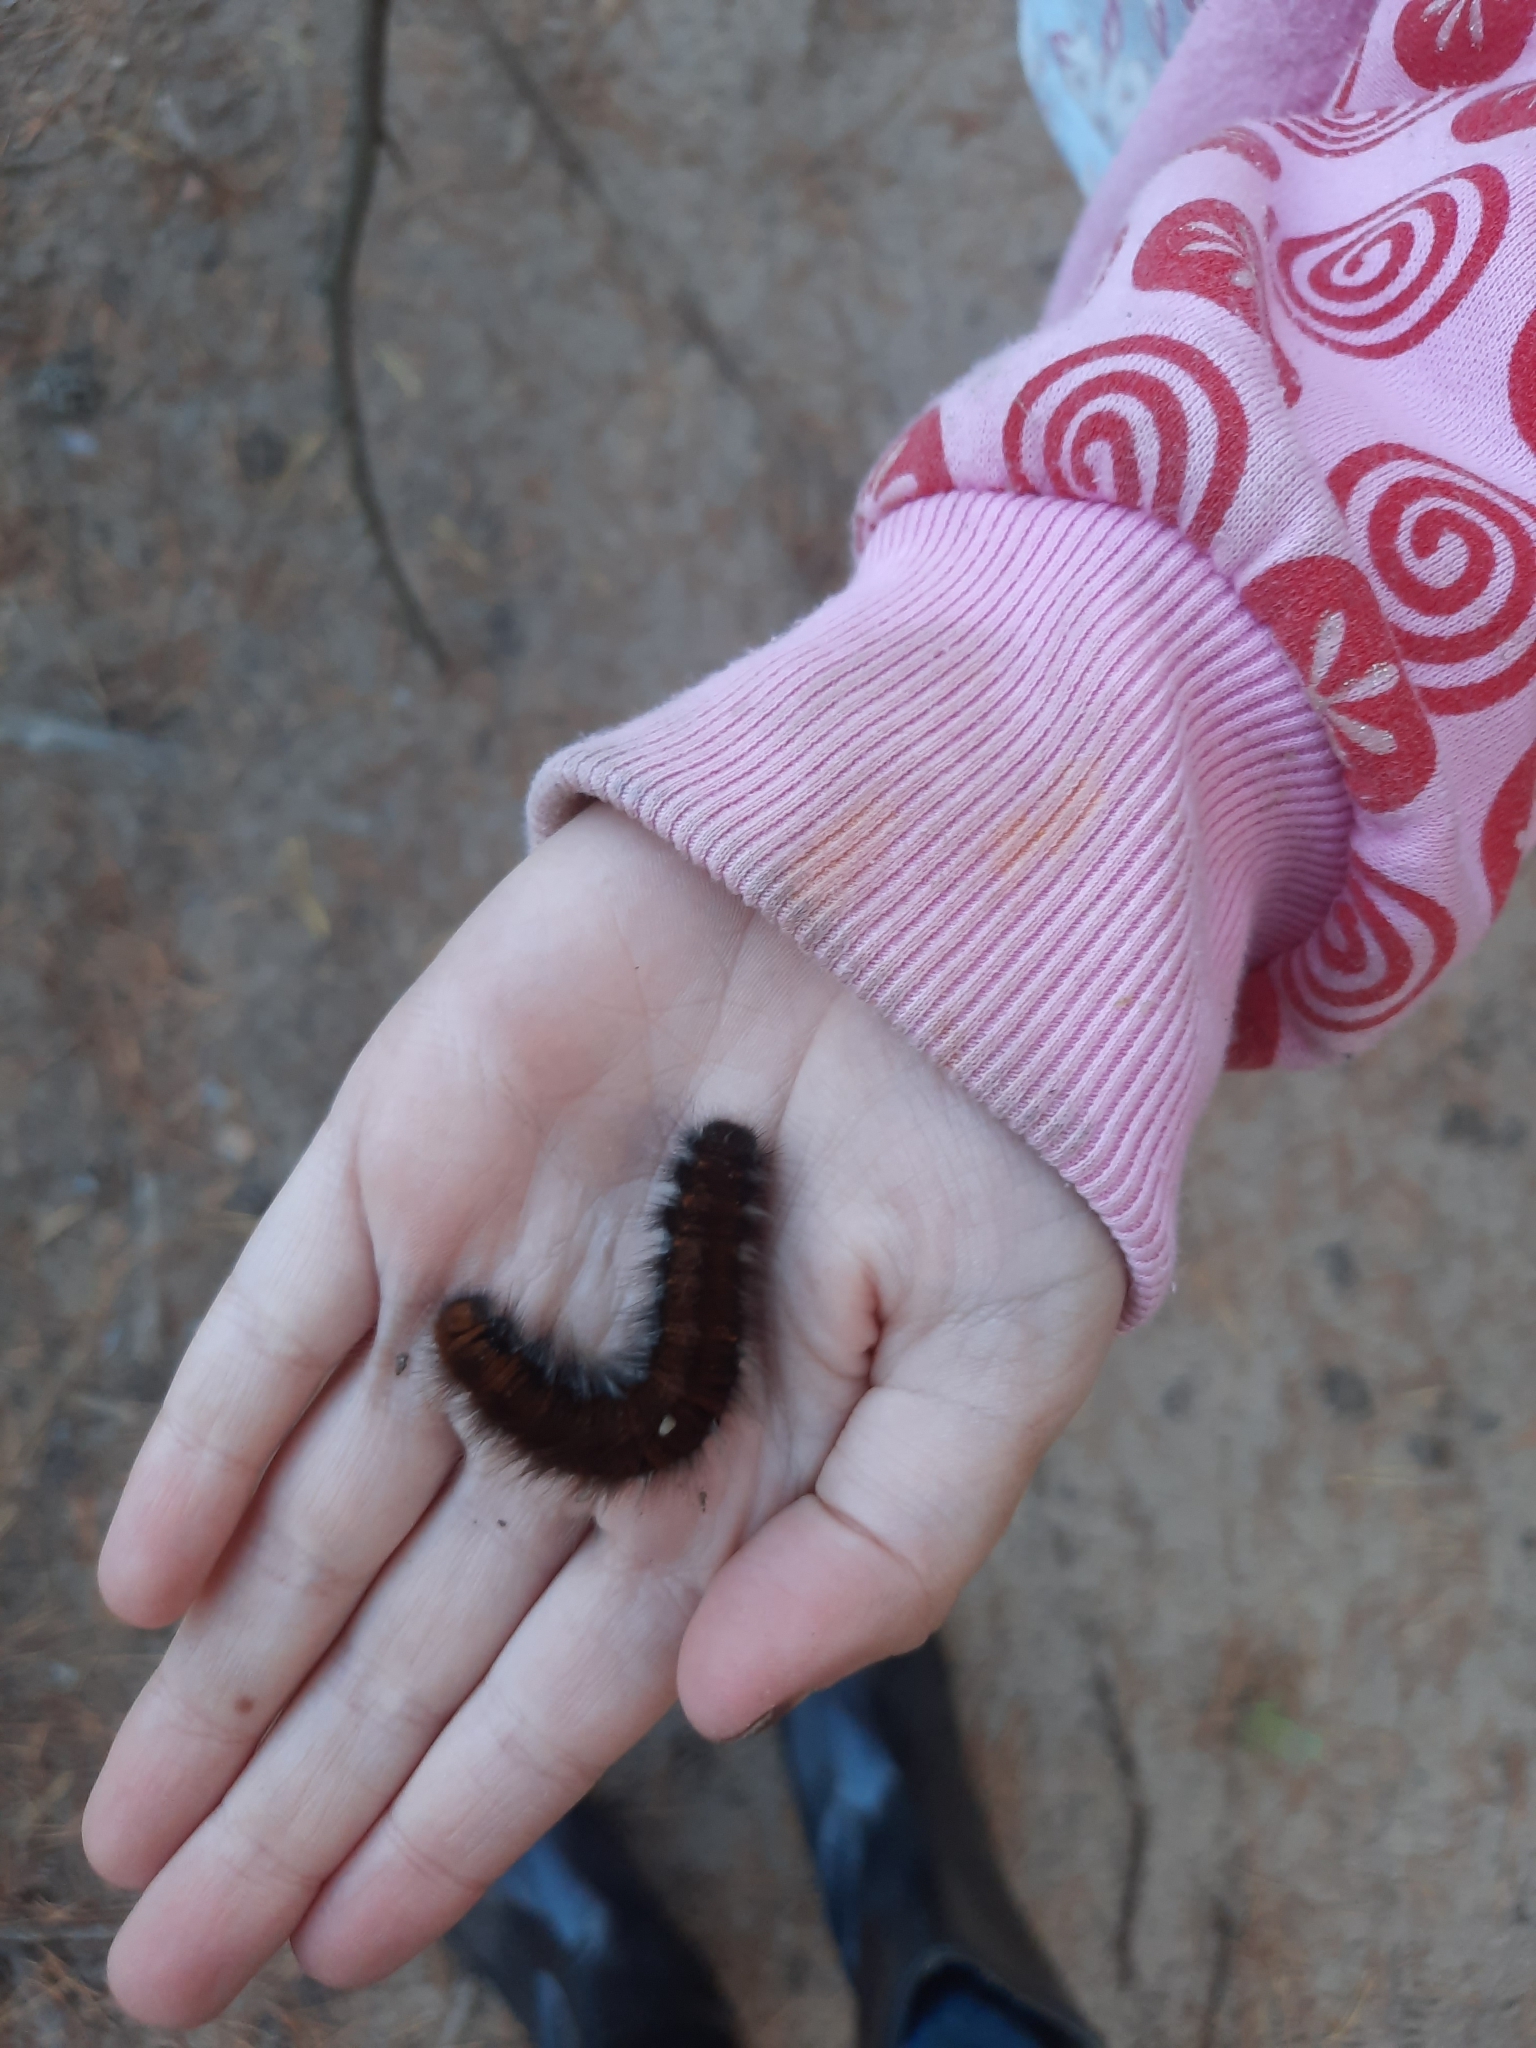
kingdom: Animalia
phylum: Arthropoda
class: Insecta
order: Lepidoptera
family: Lasiocampidae
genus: Macrothylacia
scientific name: Macrothylacia rubi
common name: Fox moth
